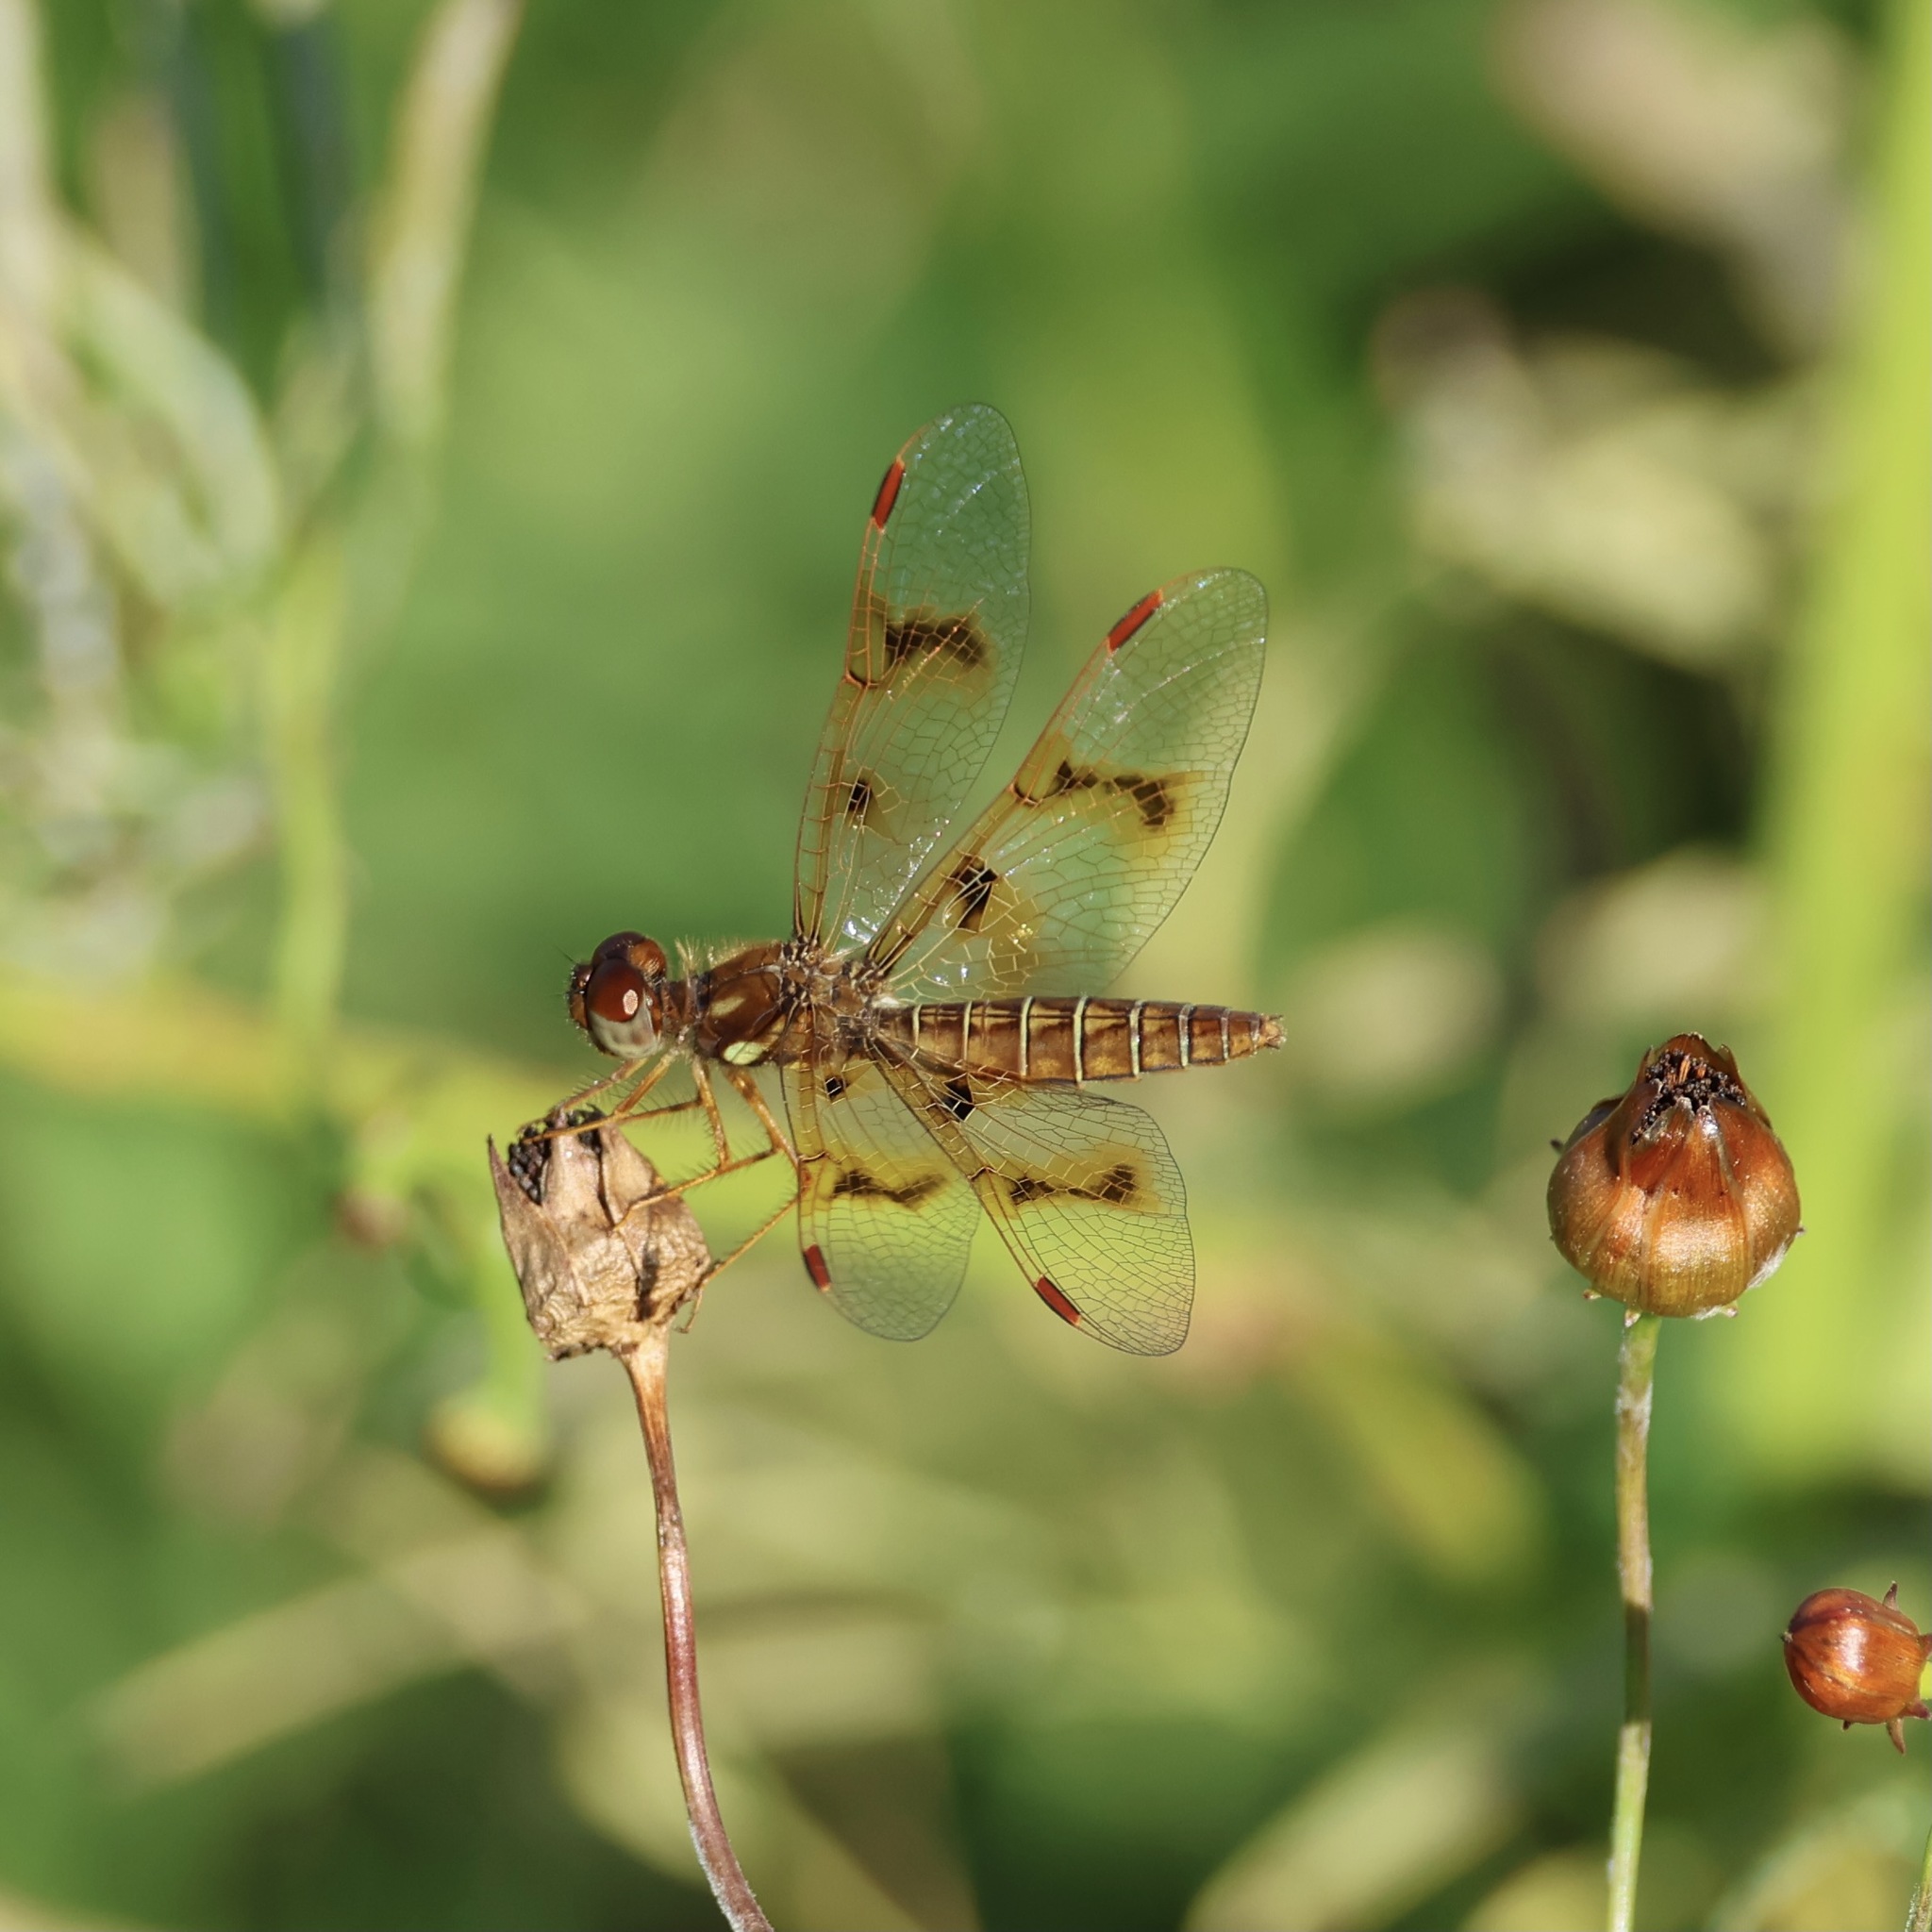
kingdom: Animalia
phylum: Arthropoda
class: Insecta
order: Odonata
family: Libellulidae
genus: Perithemis
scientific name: Perithemis tenera
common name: Eastern amberwing
